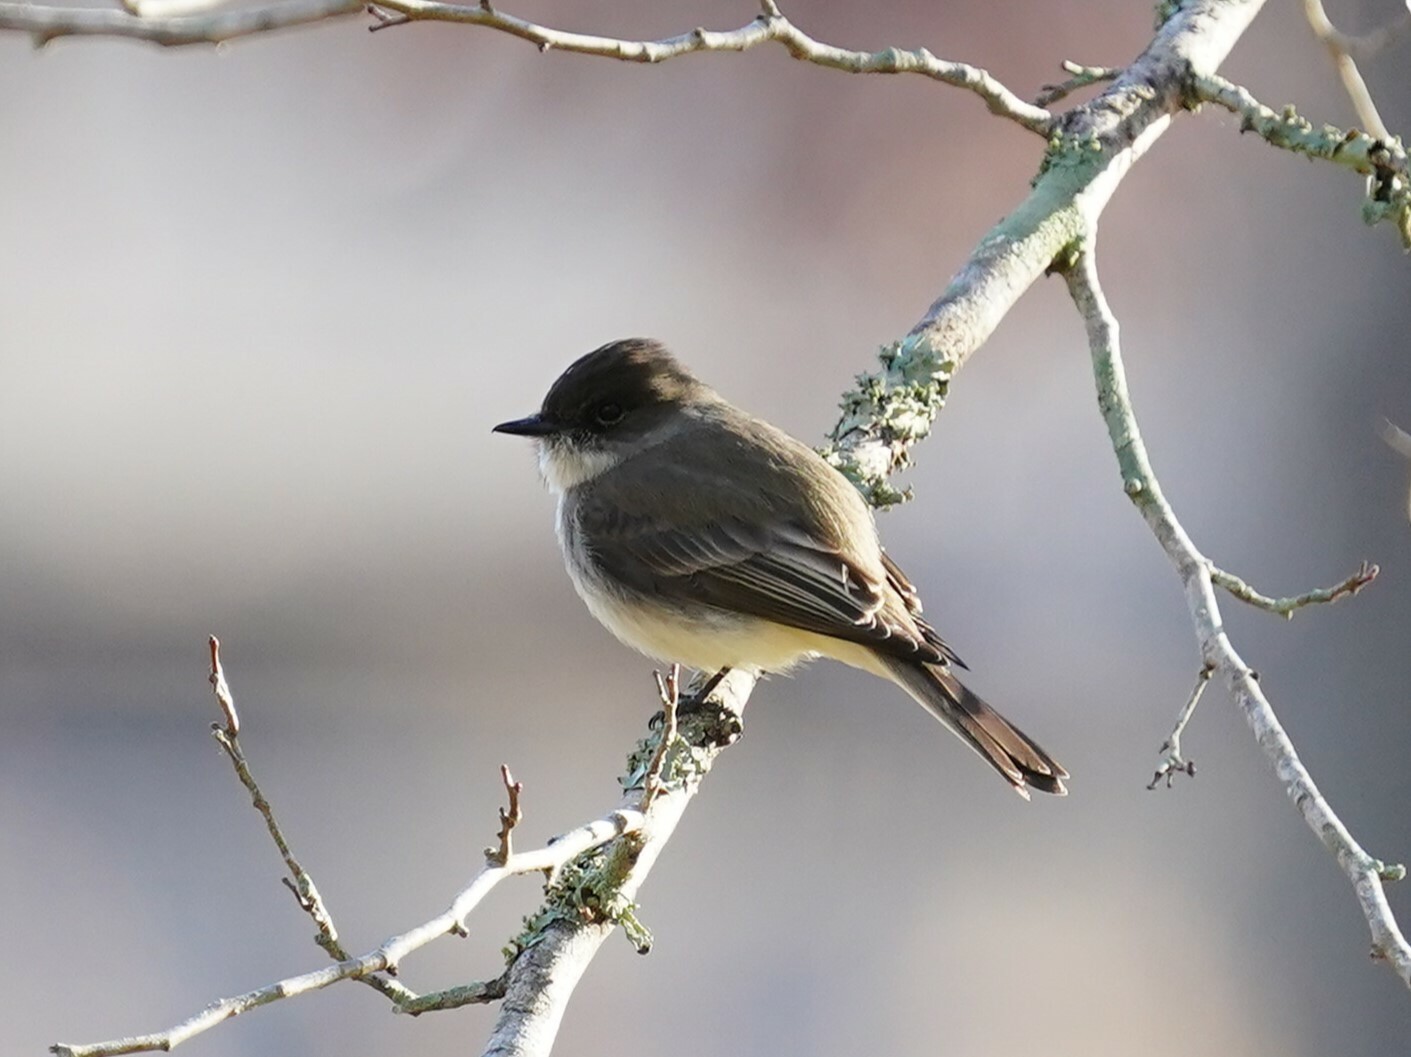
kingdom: Animalia
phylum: Chordata
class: Aves
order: Passeriformes
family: Tyrannidae
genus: Sayornis
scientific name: Sayornis phoebe
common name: Eastern phoebe
